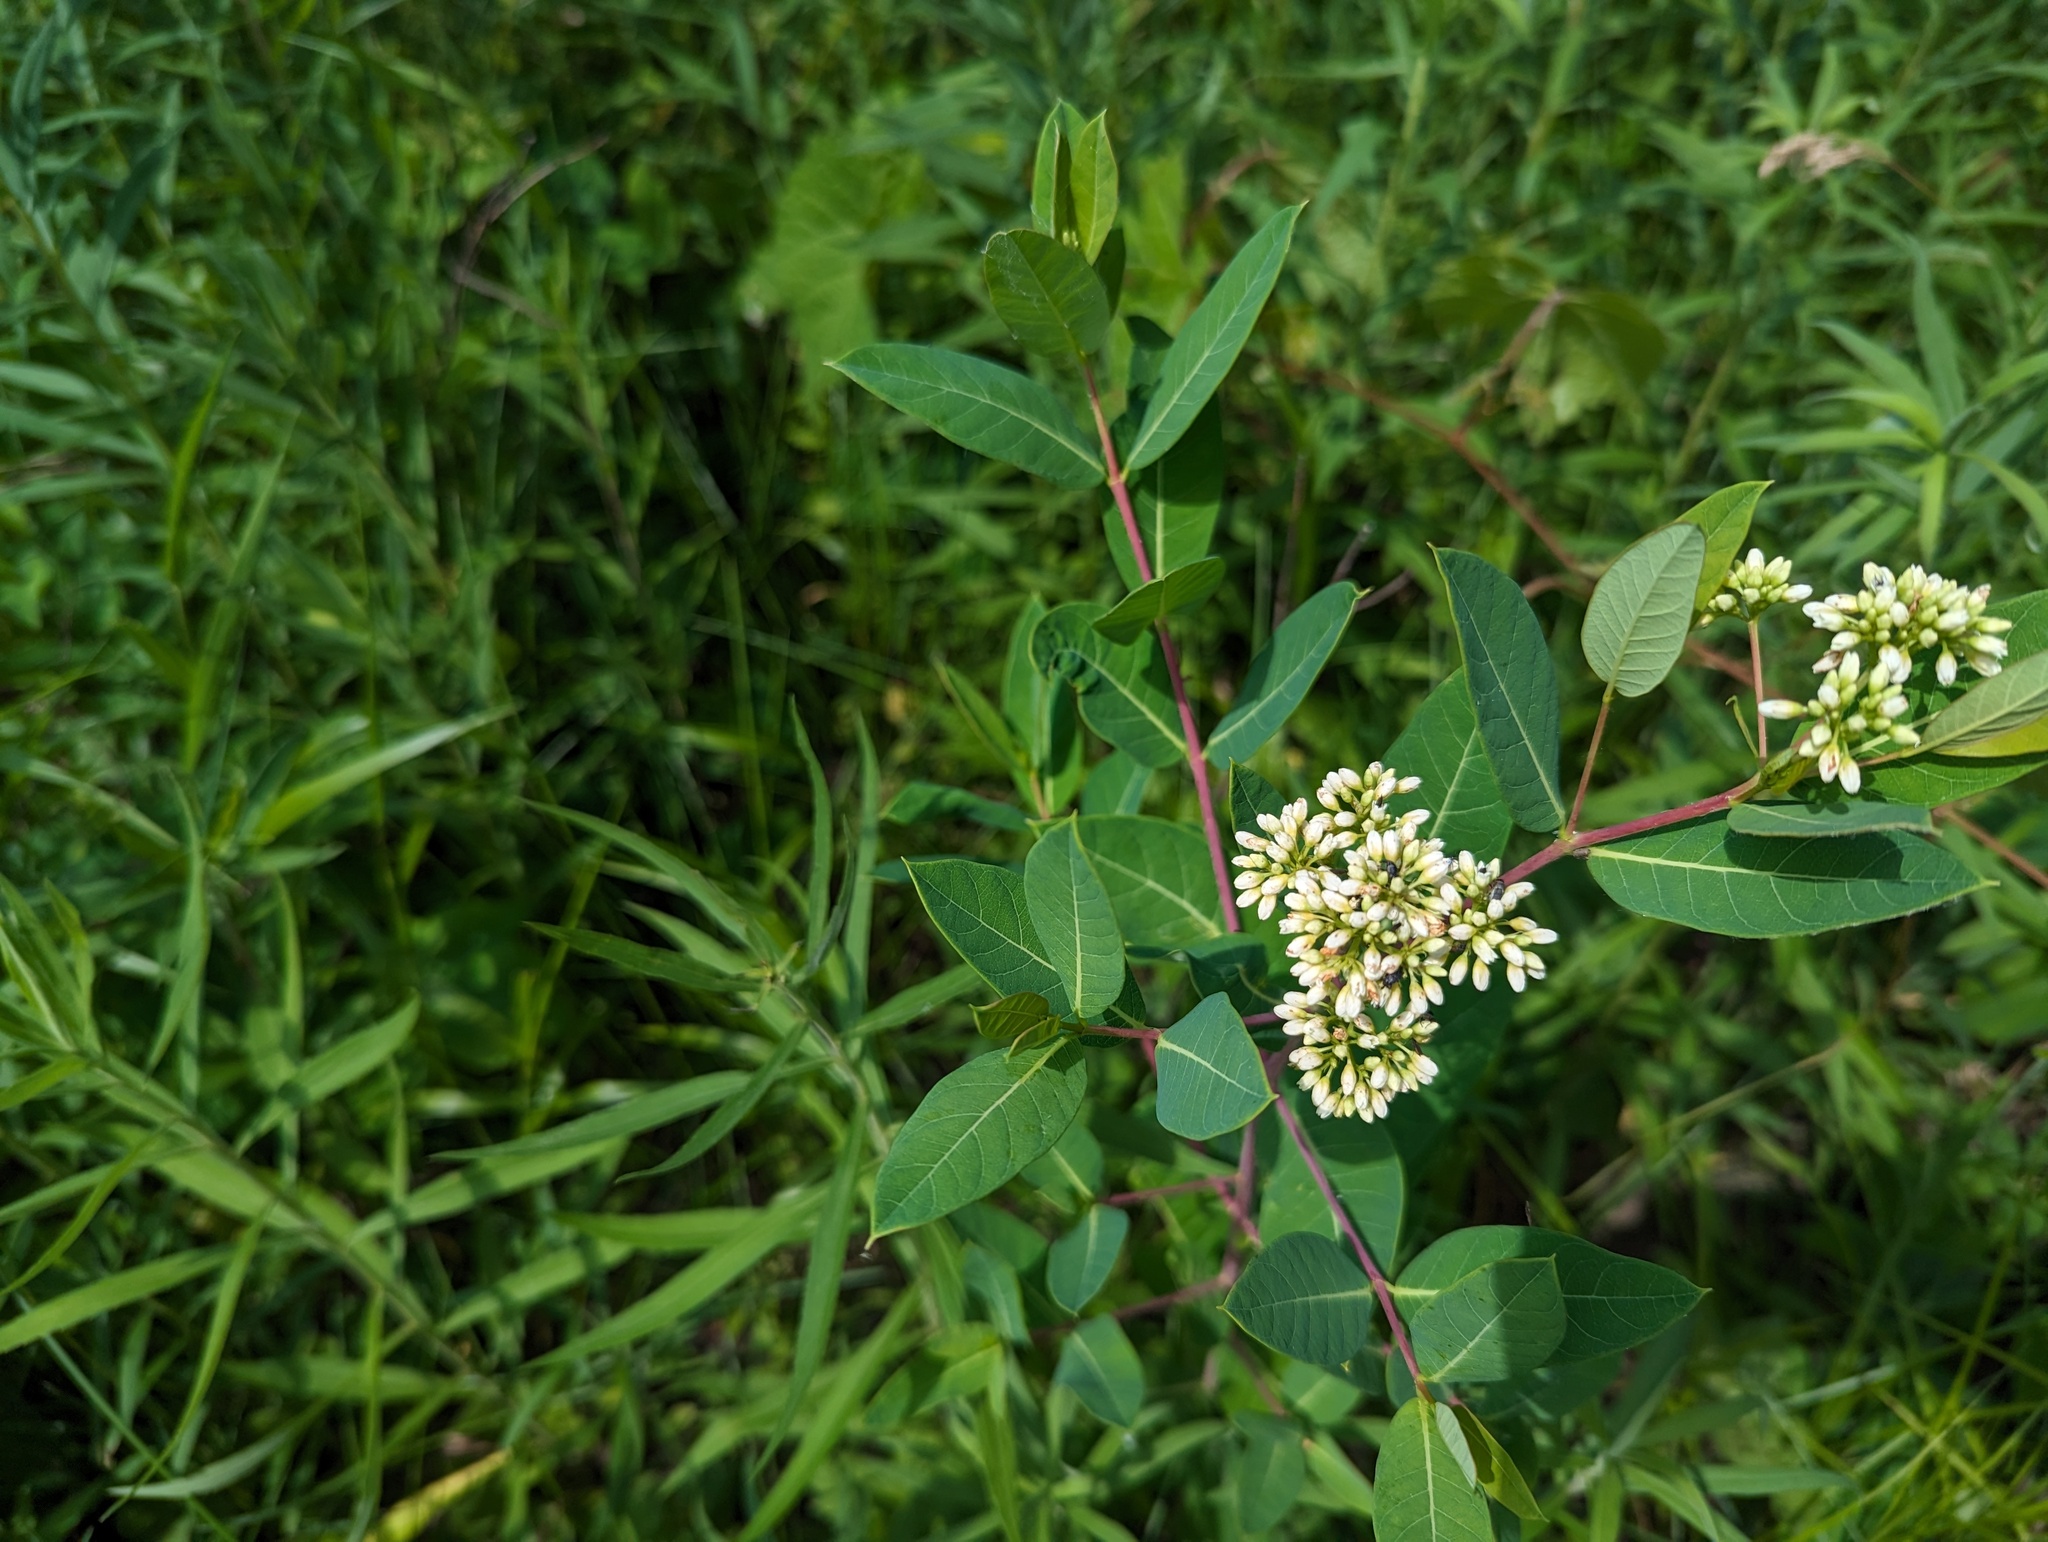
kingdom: Plantae
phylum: Tracheophyta
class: Magnoliopsida
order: Gentianales
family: Apocynaceae
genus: Apocynum
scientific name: Apocynum cannabinum
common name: Hemp dogbane
